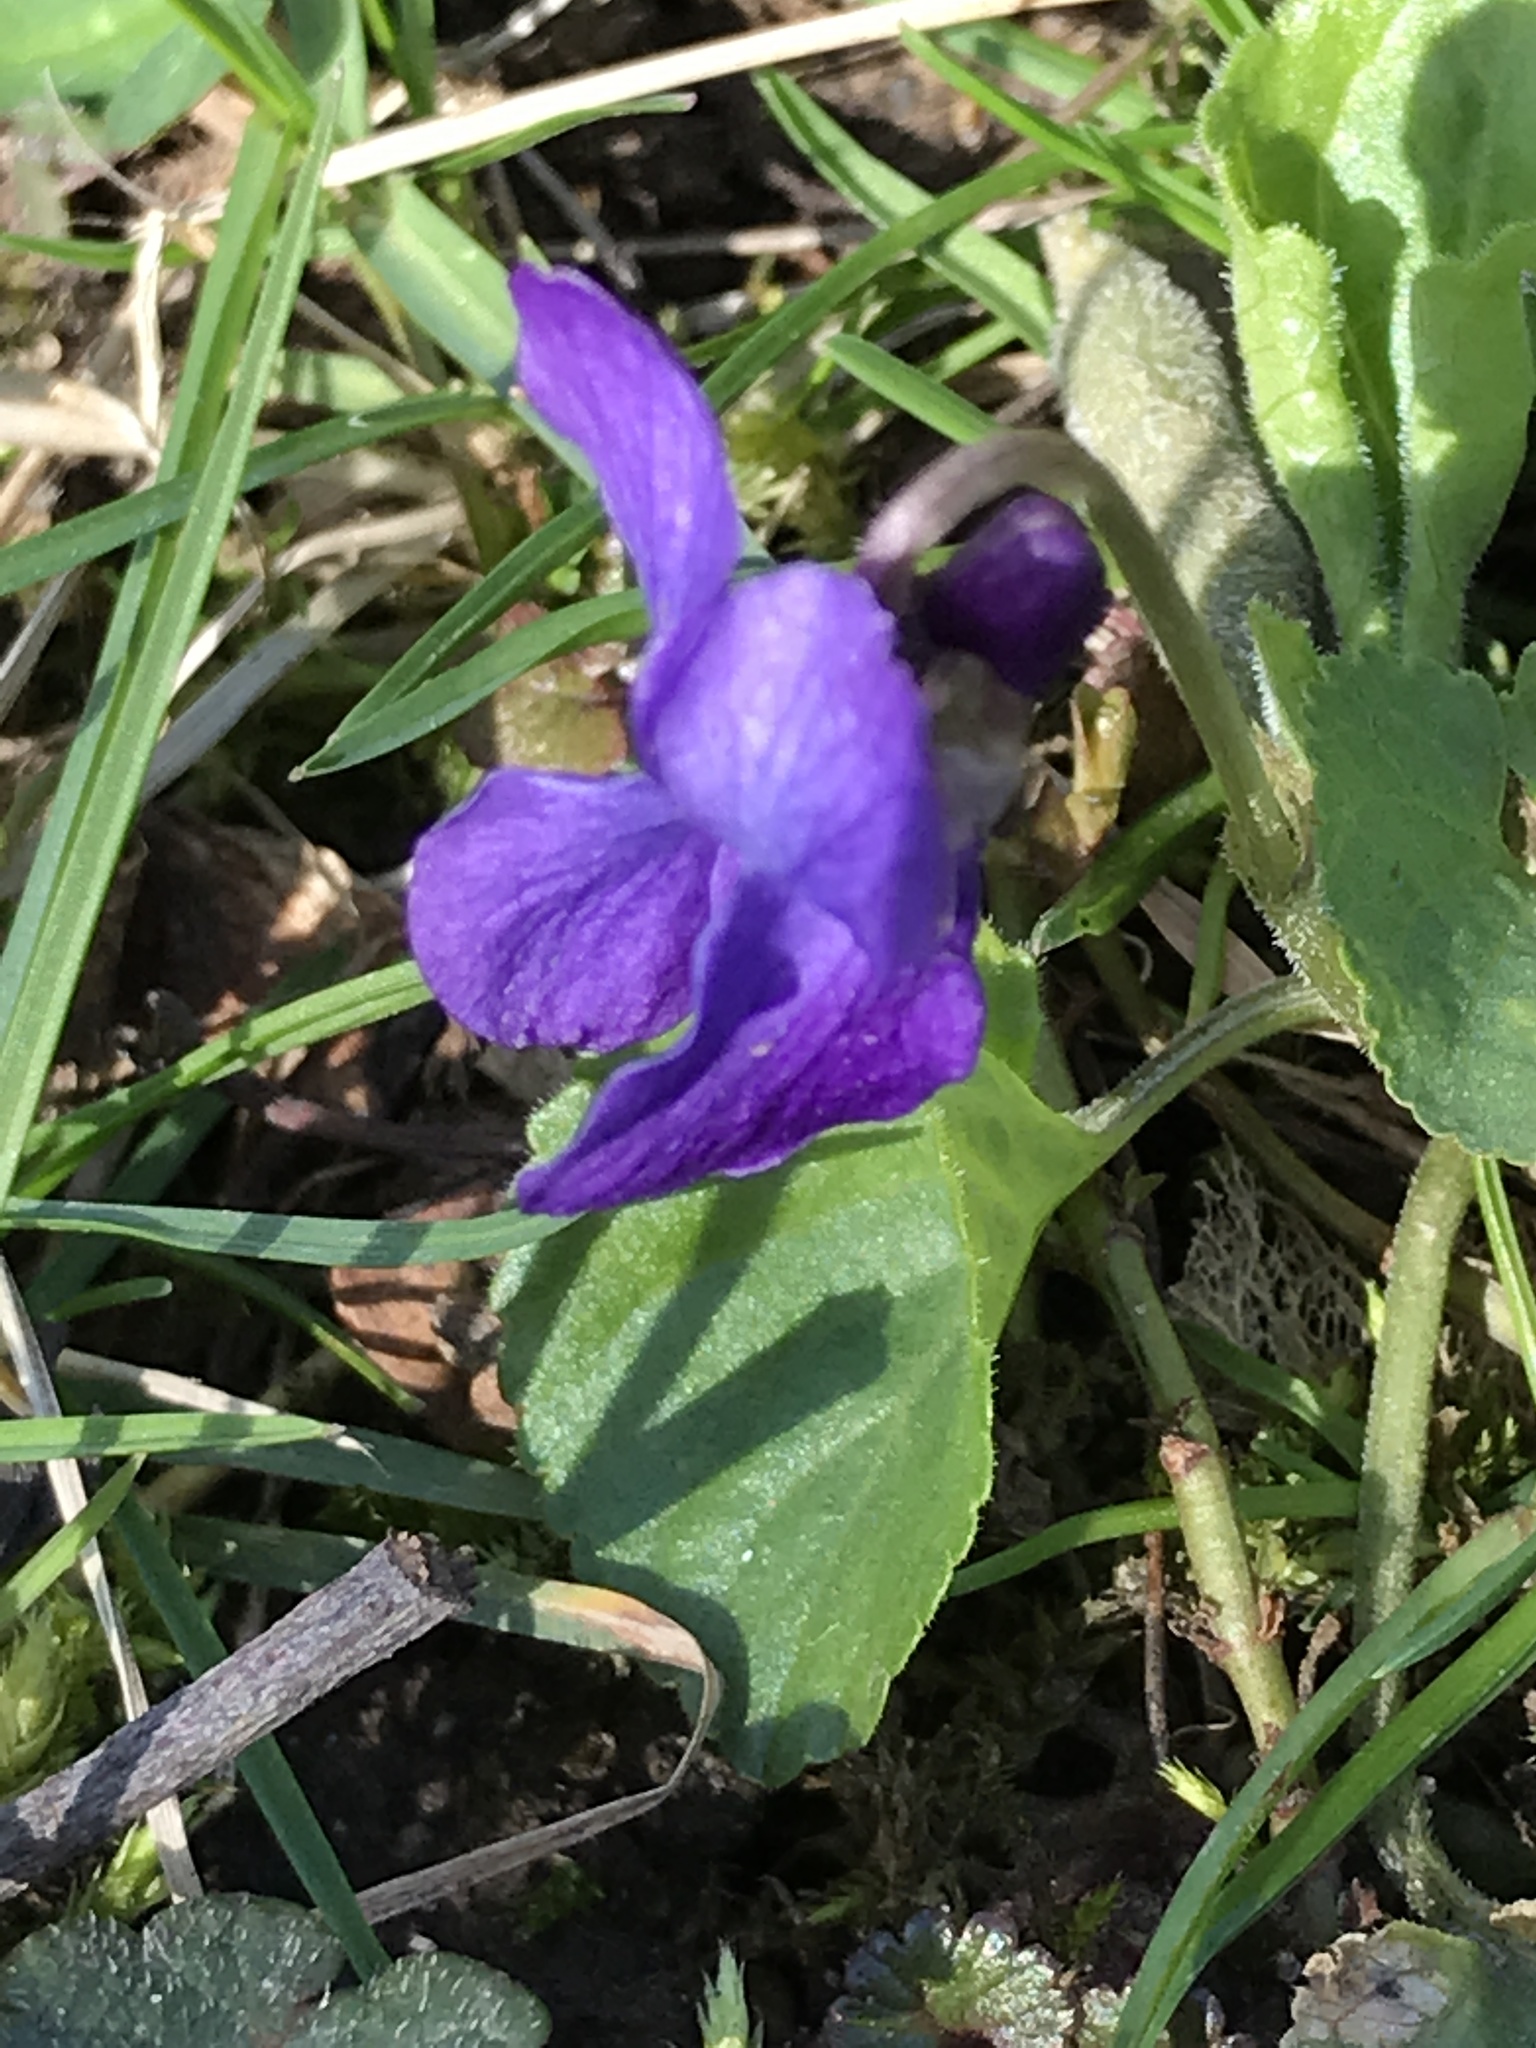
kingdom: Plantae
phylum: Tracheophyta
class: Magnoliopsida
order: Malpighiales
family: Violaceae
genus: Viola
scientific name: Viola odorata
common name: Sweet violet
